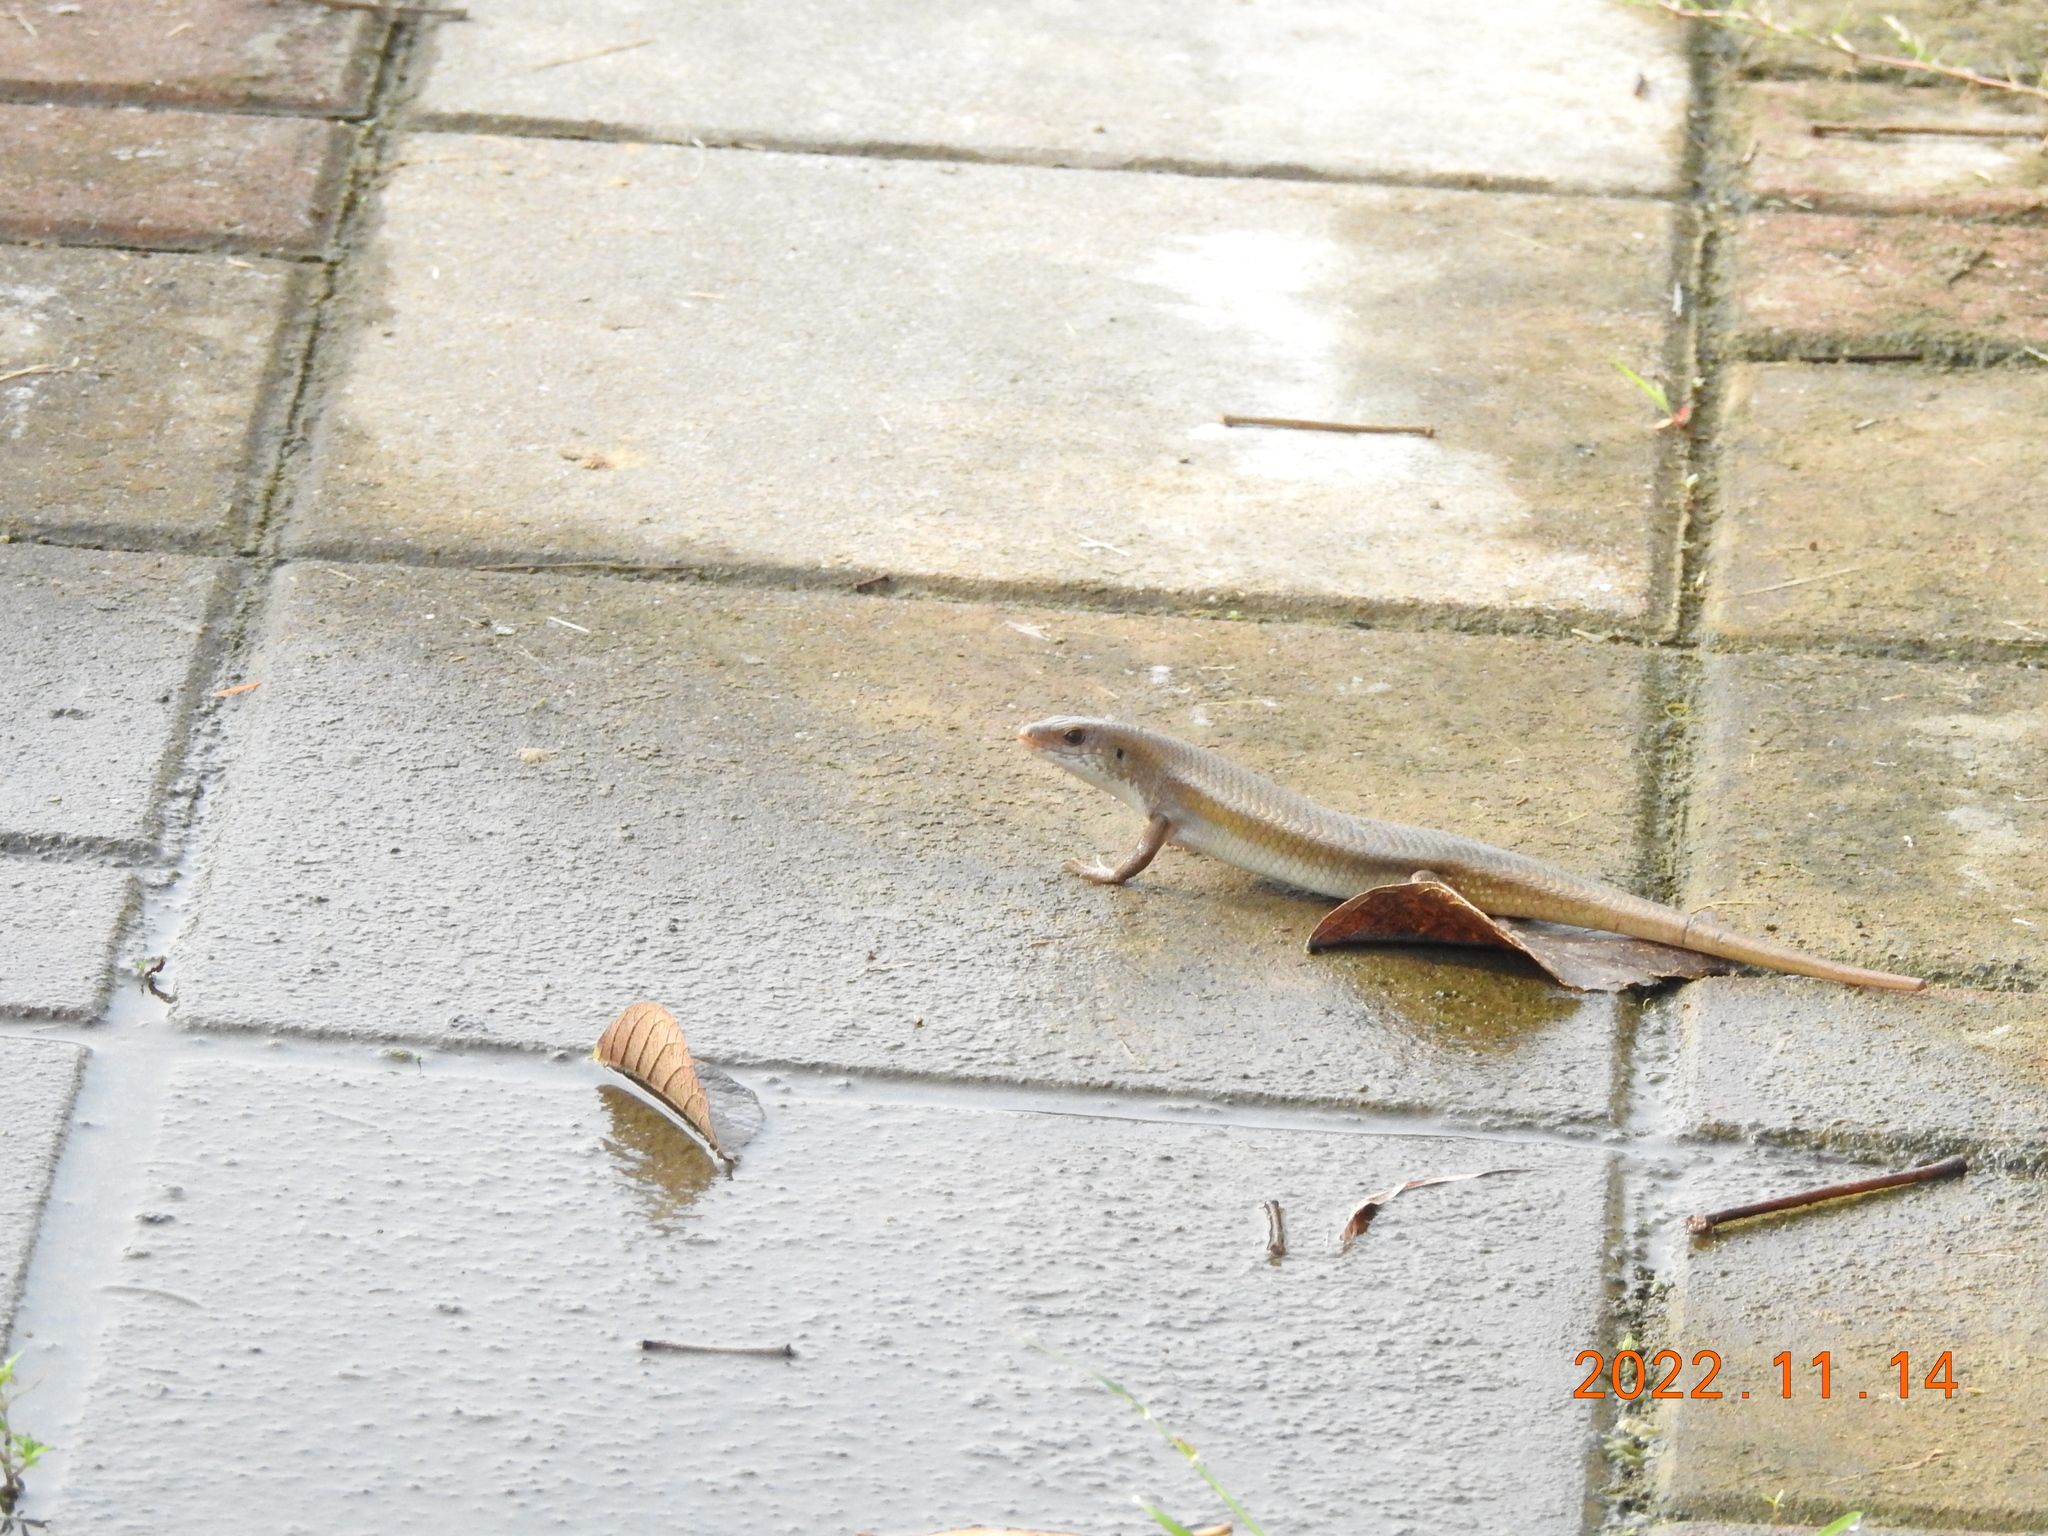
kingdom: Animalia
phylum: Chordata
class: Squamata
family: Scincidae
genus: Eutropis
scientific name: Eutropis multifasciata
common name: Common mabuya
